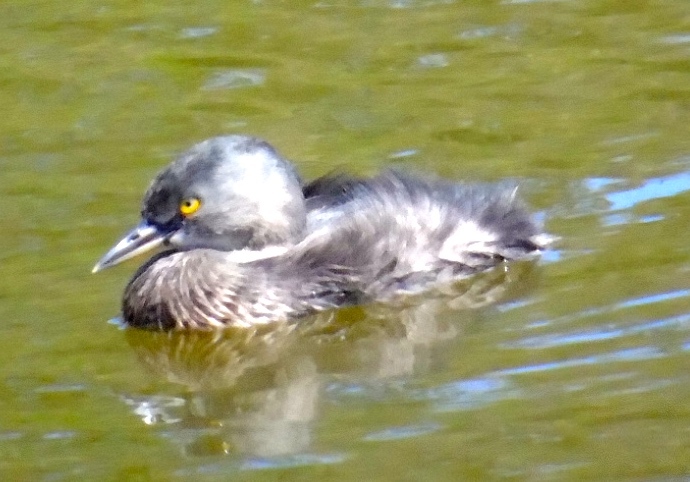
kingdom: Animalia
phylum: Chordata
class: Aves
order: Podicipediformes
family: Podicipedidae
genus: Tachybaptus
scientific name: Tachybaptus dominicus
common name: Least grebe
